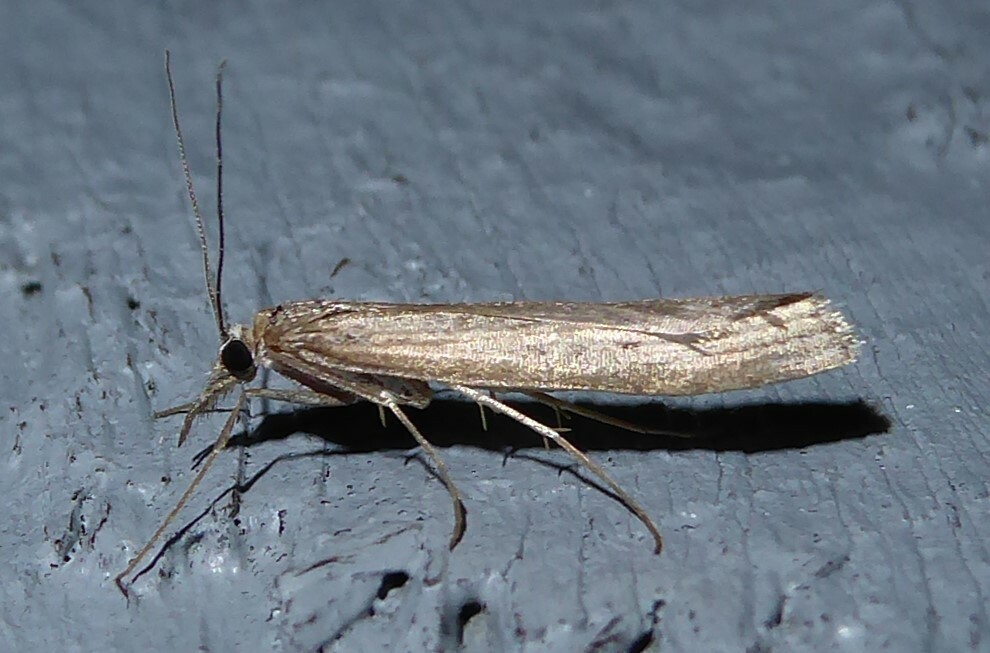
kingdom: Animalia
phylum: Arthropoda
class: Insecta
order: Lepidoptera
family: Crambidae
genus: Orocrambus
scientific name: Orocrambus cyclopicus
